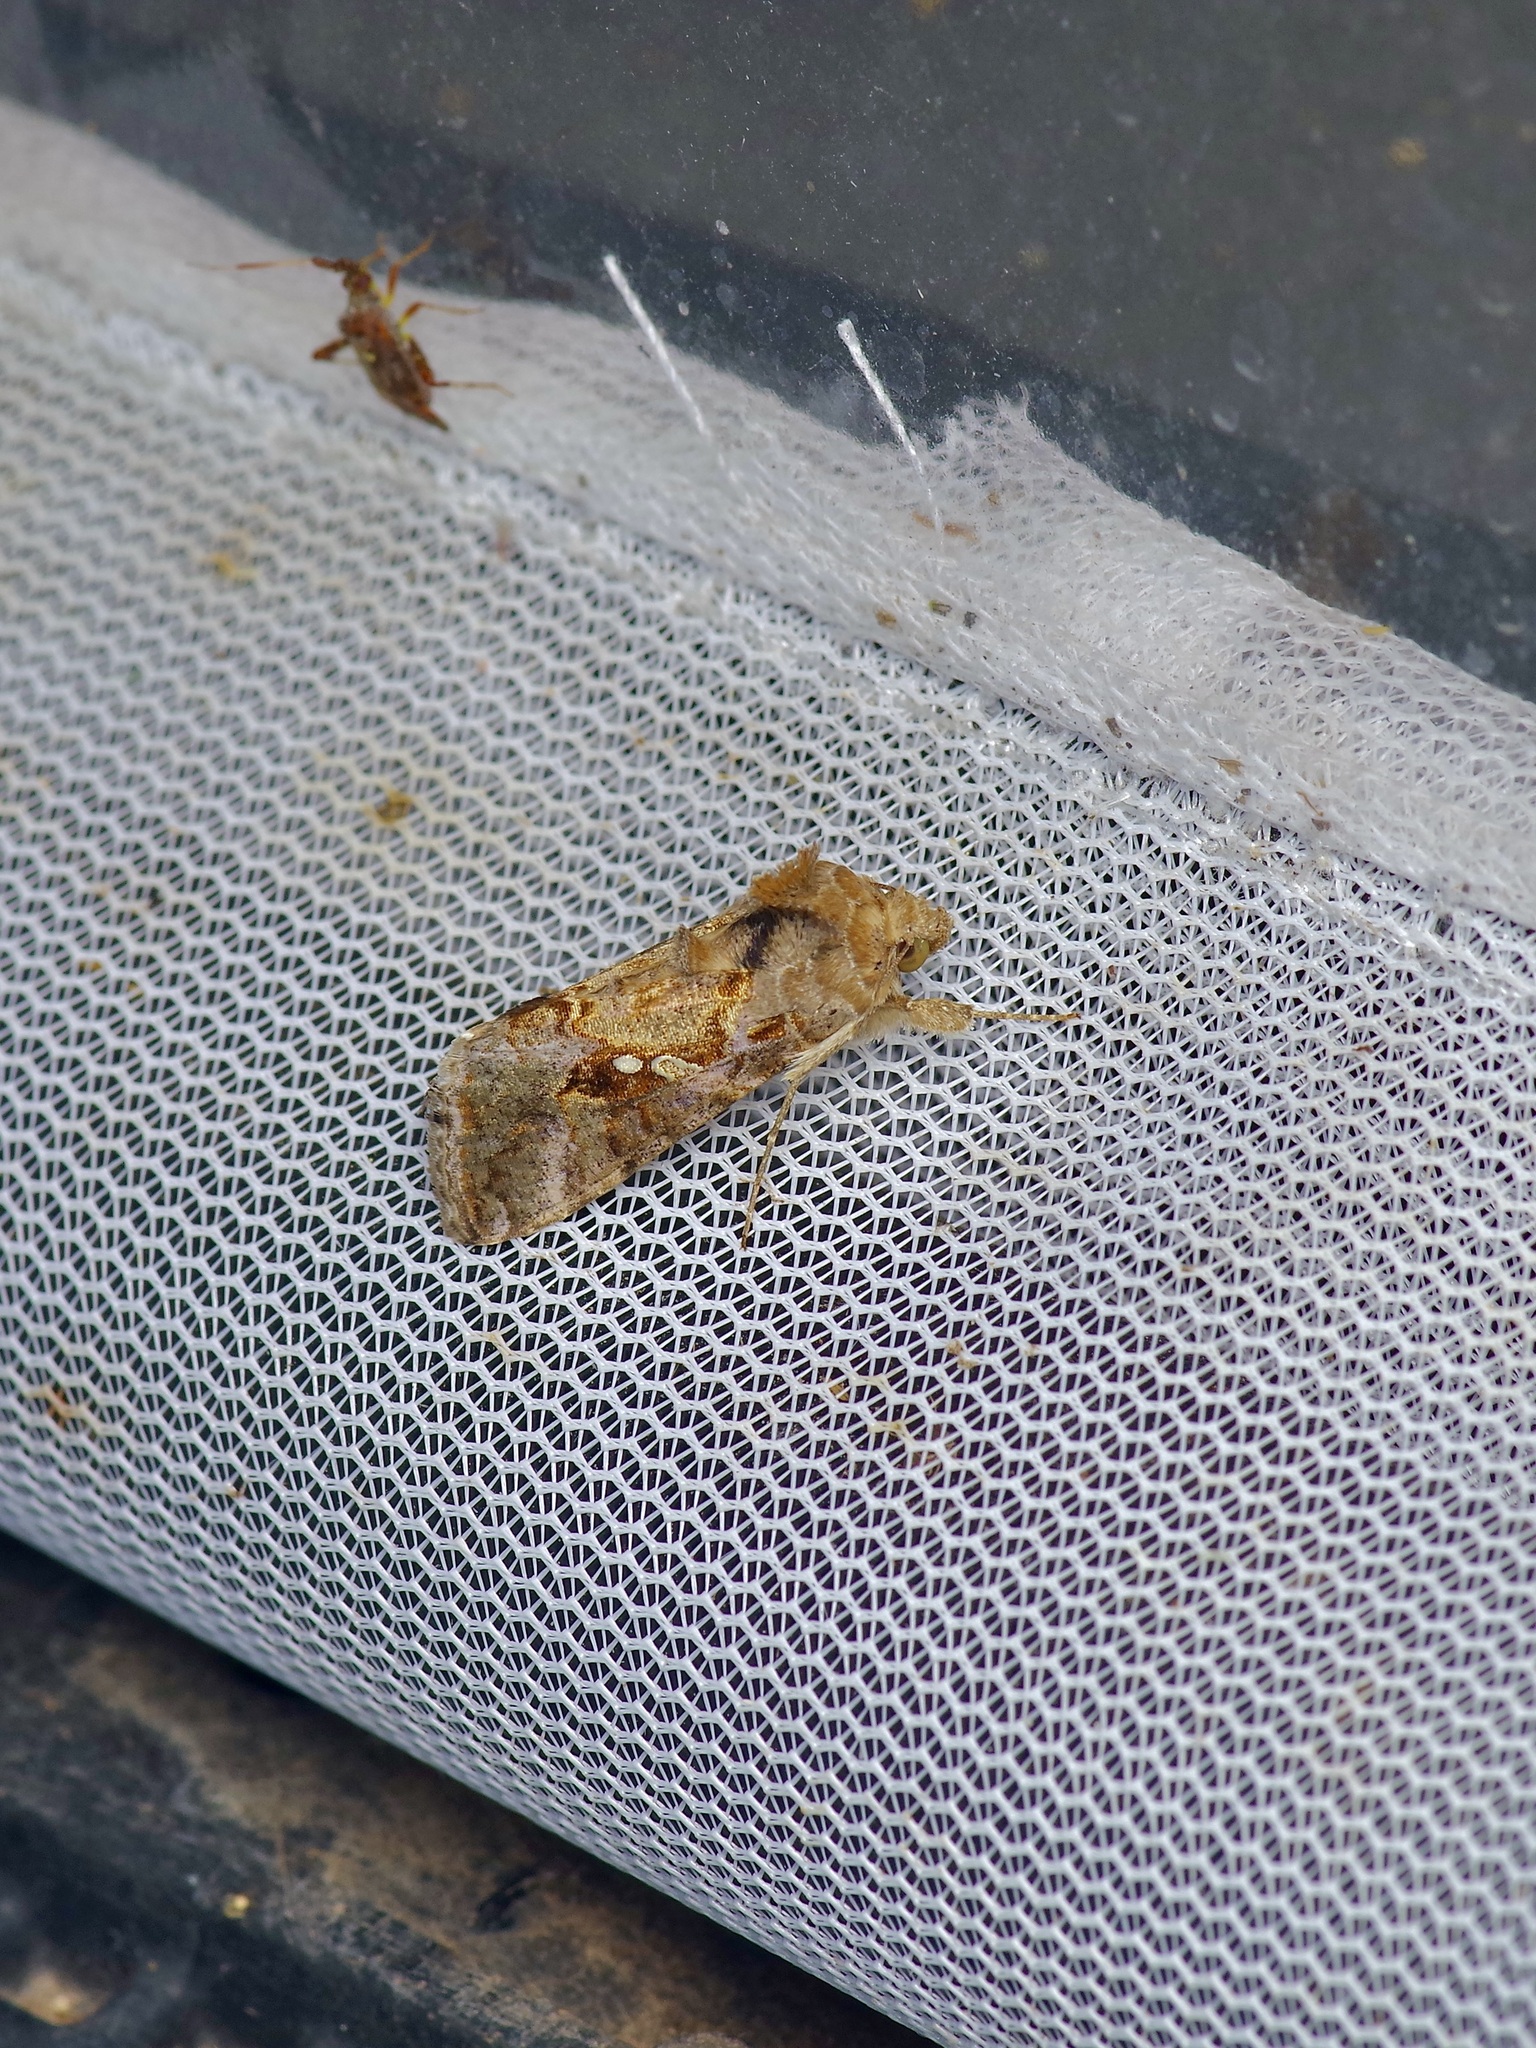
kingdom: Animalia
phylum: Arthropoda
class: Insecta
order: Lepidoptera
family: Noctuidae
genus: Chrysodeixis
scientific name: Chrysodeixis includens
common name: Cutworm moth
